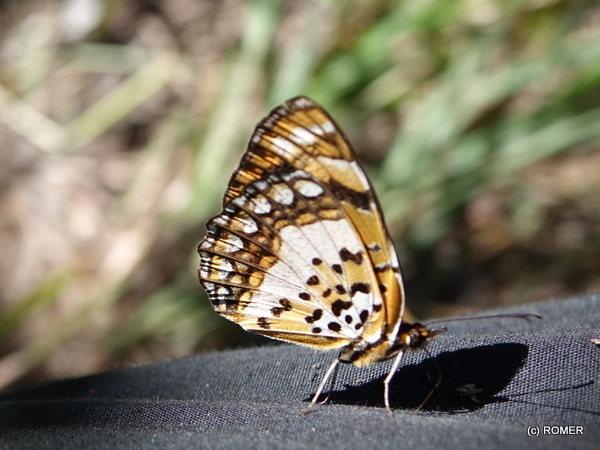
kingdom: Animalia
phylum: Arthropoda
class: Insecta
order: Lepidoptera
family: Nymphalidae
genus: Byblia
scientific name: Byblia anvatara
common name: African joker
